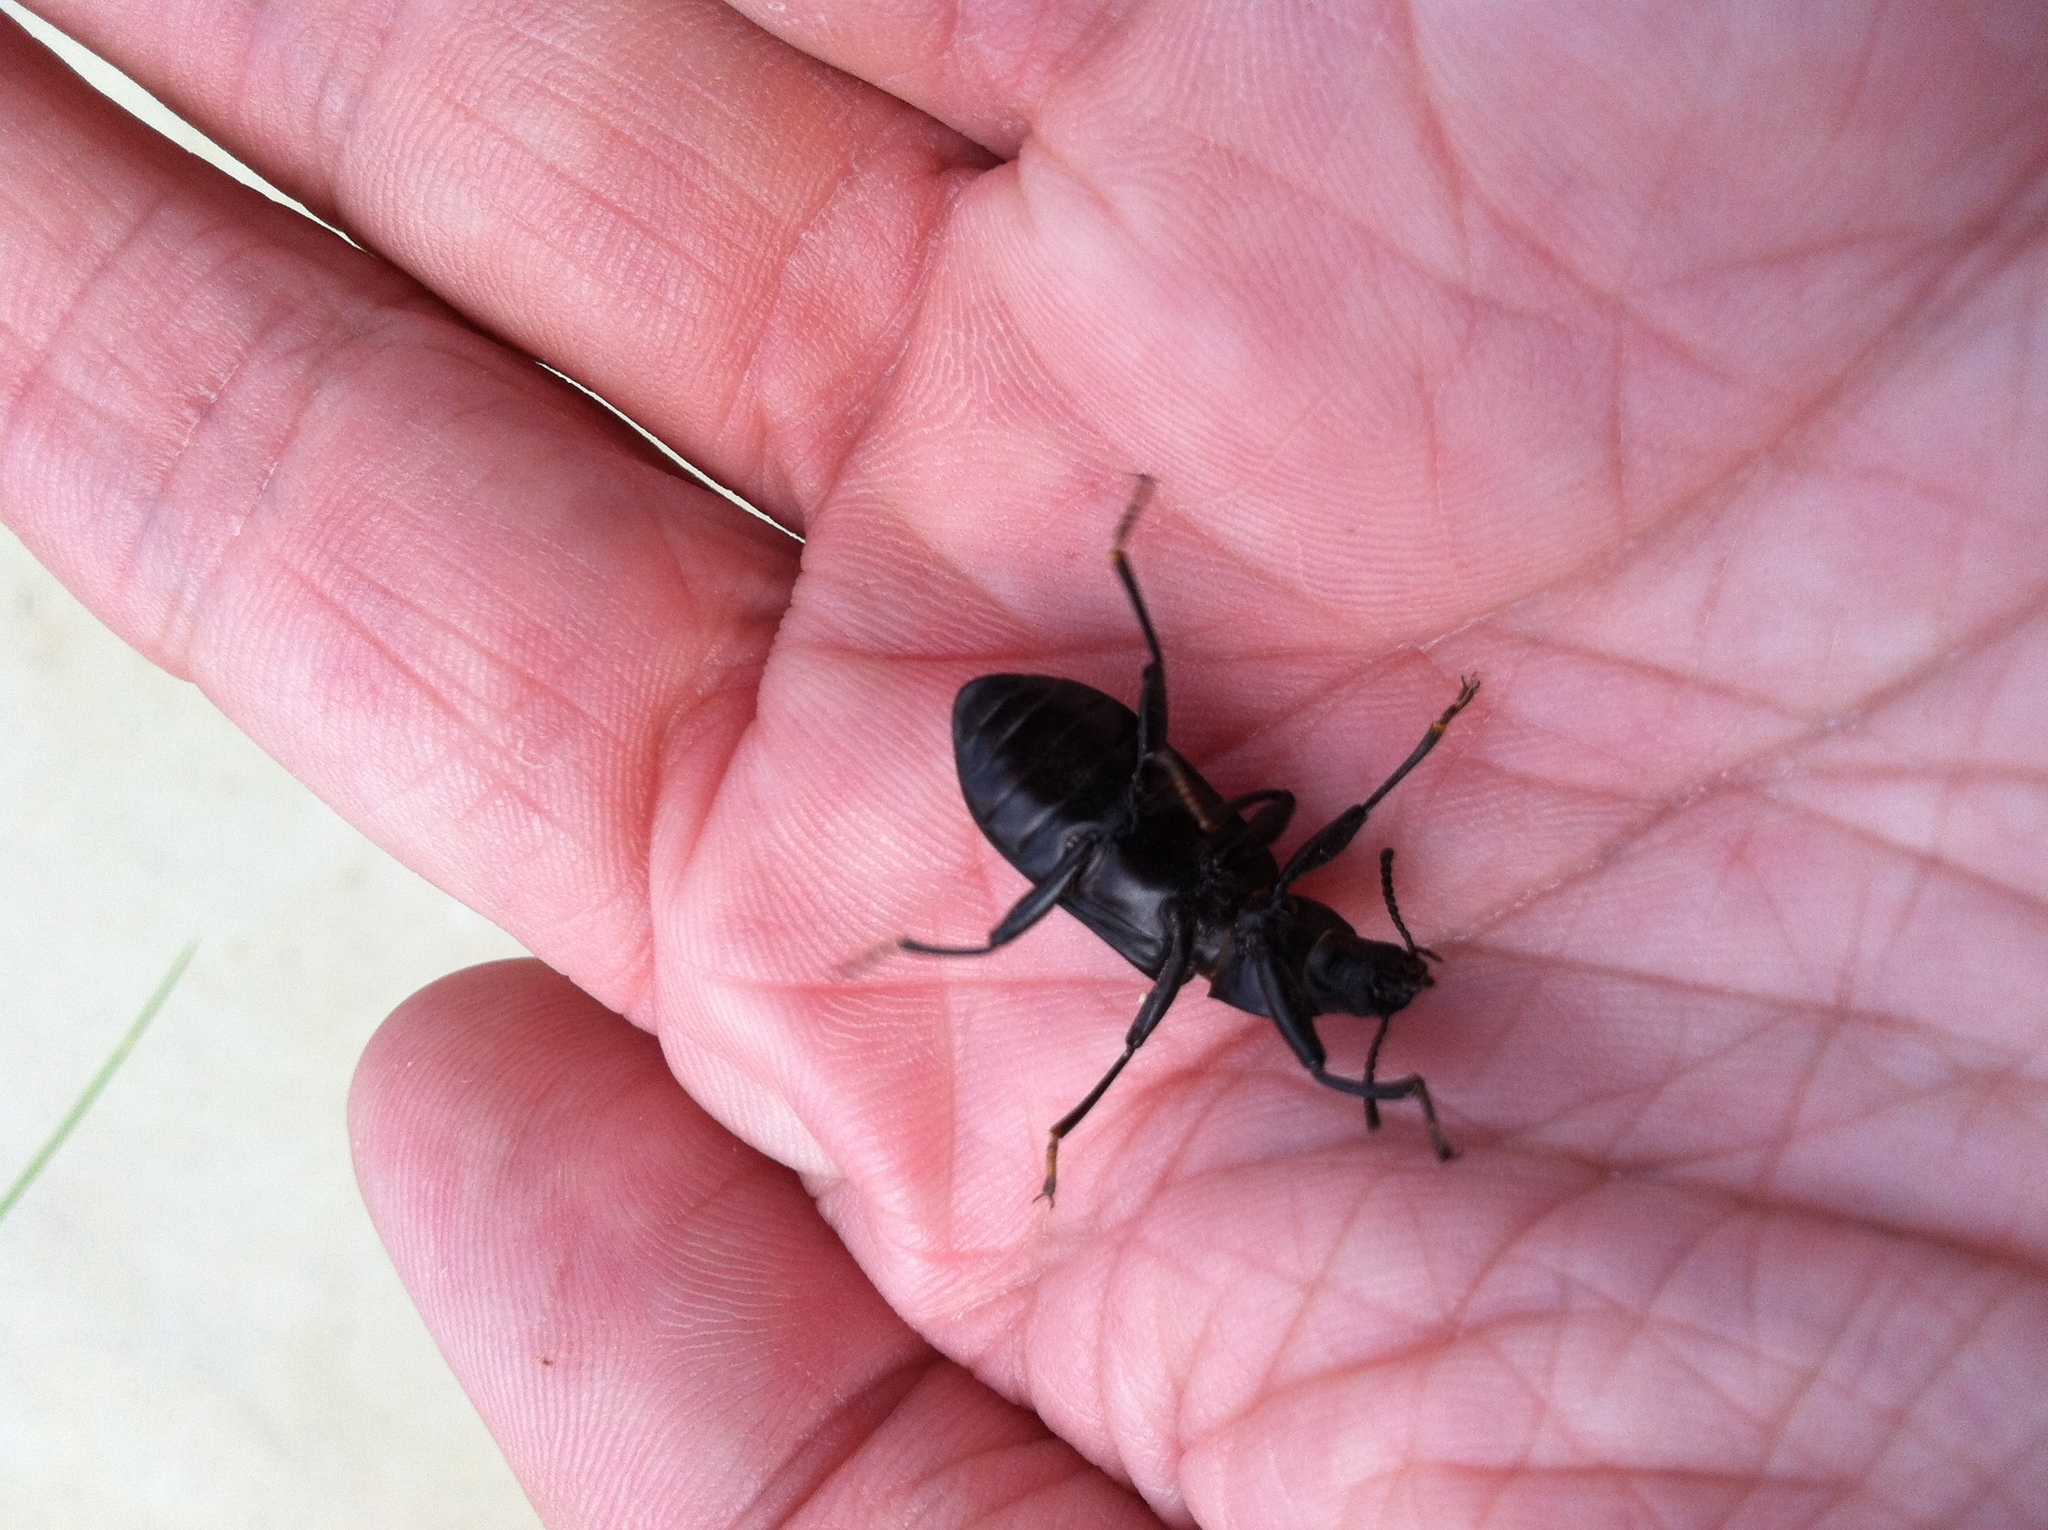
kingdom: Animalia
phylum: Arthropoda
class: Insecta
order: Coleoptera
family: Tenebrionidae
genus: Alobates
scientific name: Alobates pensylvanicus
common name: False mealworm beetle
